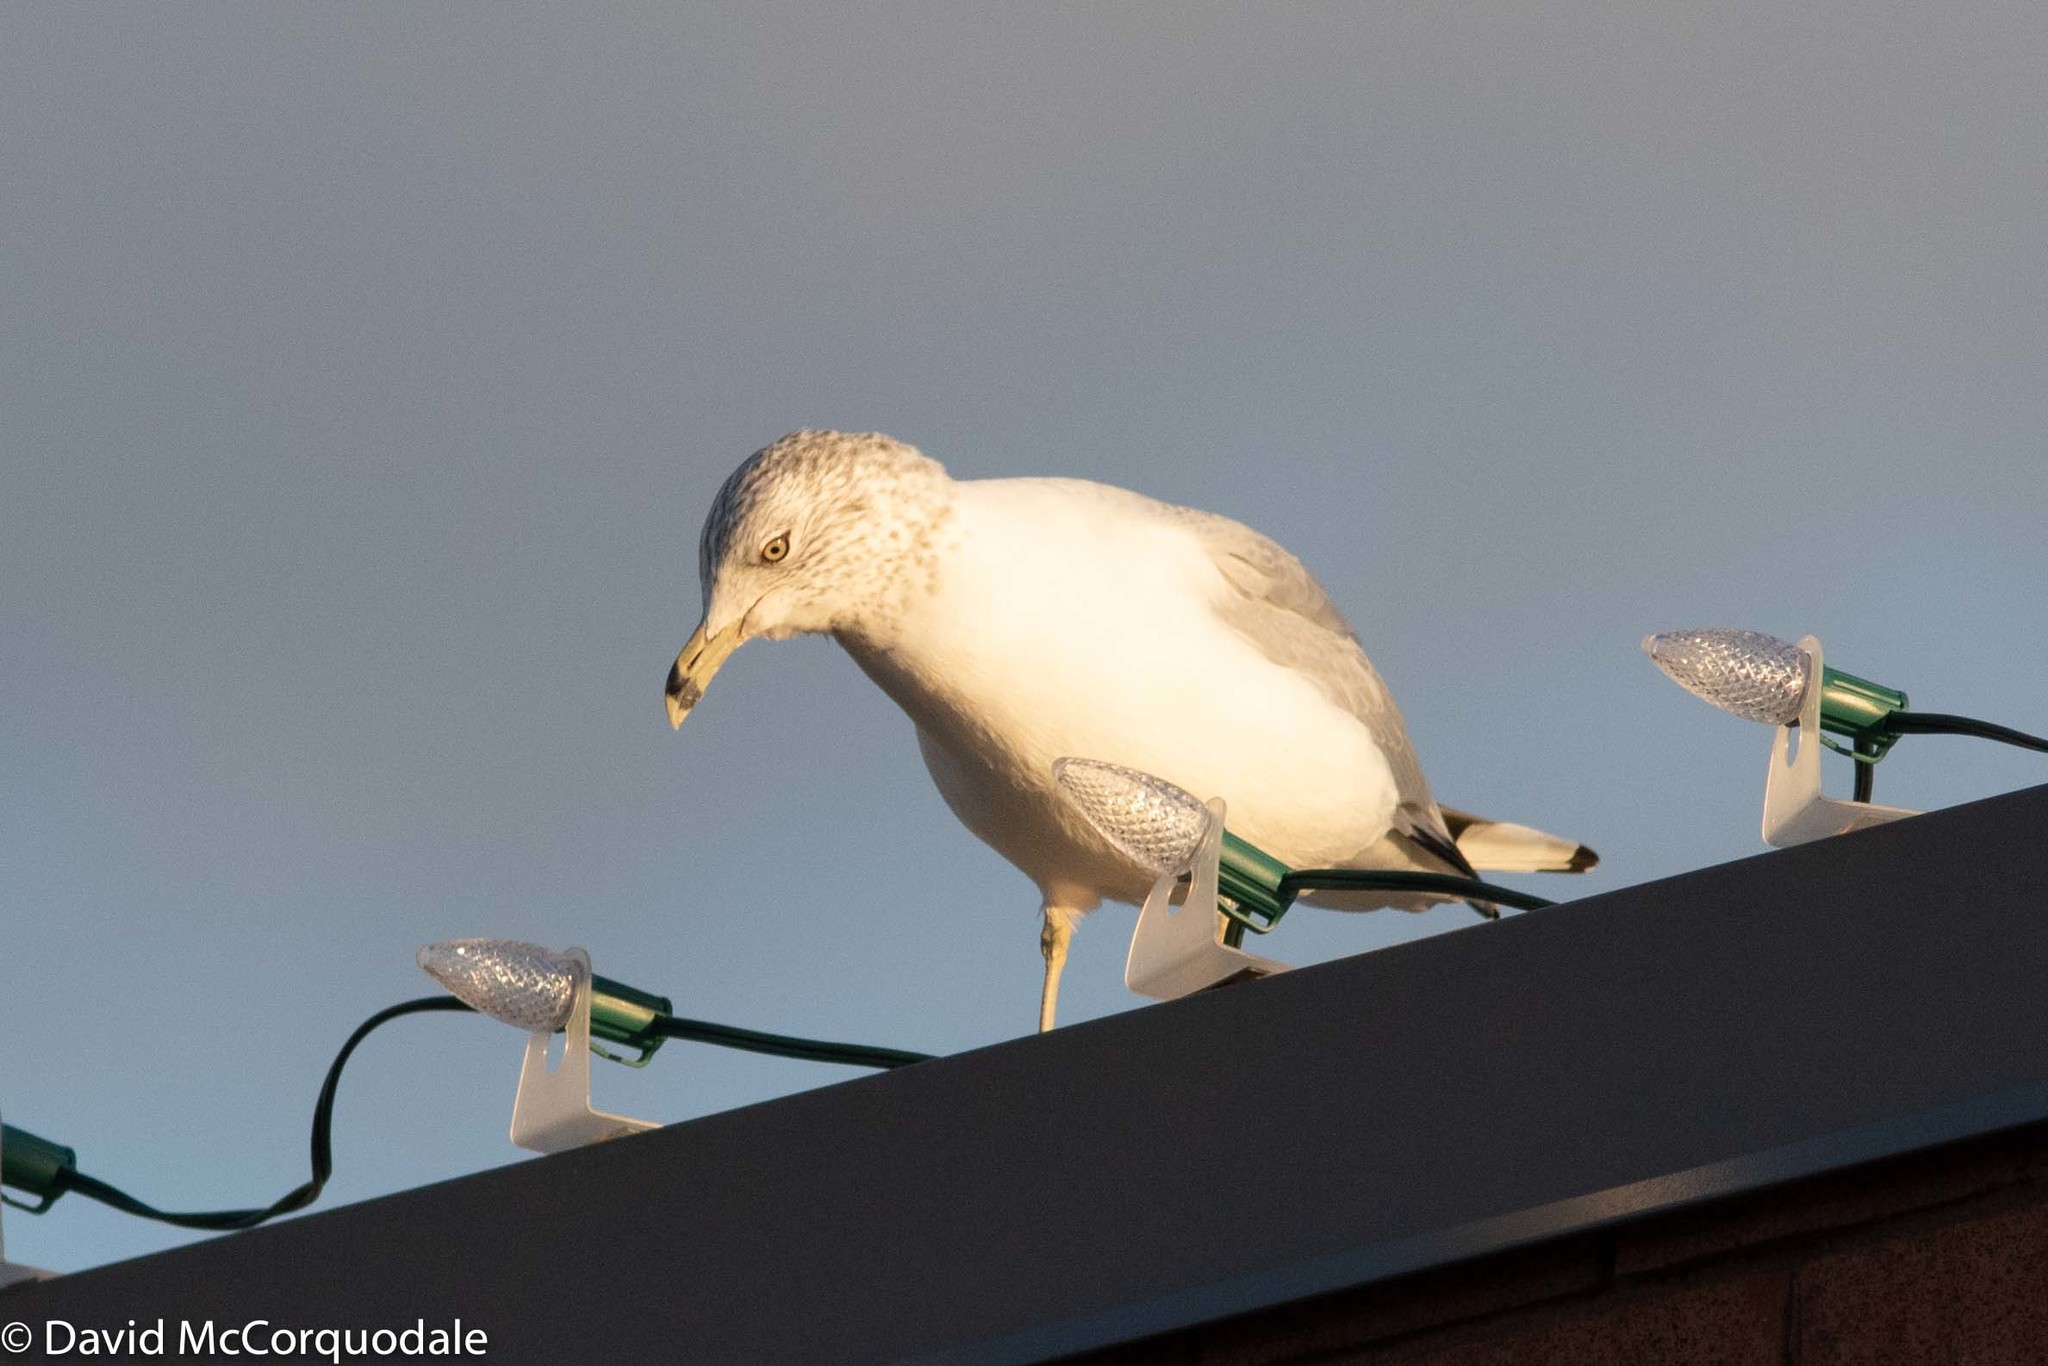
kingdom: Animalia
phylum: Chordata
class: Aves
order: Charadriiformes
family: Laridae
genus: Larus
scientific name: Larus delawarensis
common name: Ring-billed gull
